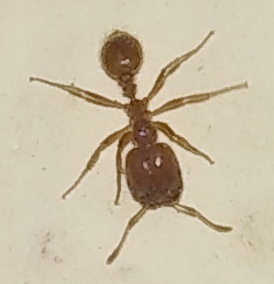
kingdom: Animalia
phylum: Arthropoda
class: Insecta
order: Hymenoptera
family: Formicidae
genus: Solenopsis
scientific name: Solenopsis geminata
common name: Tropical fire ant
